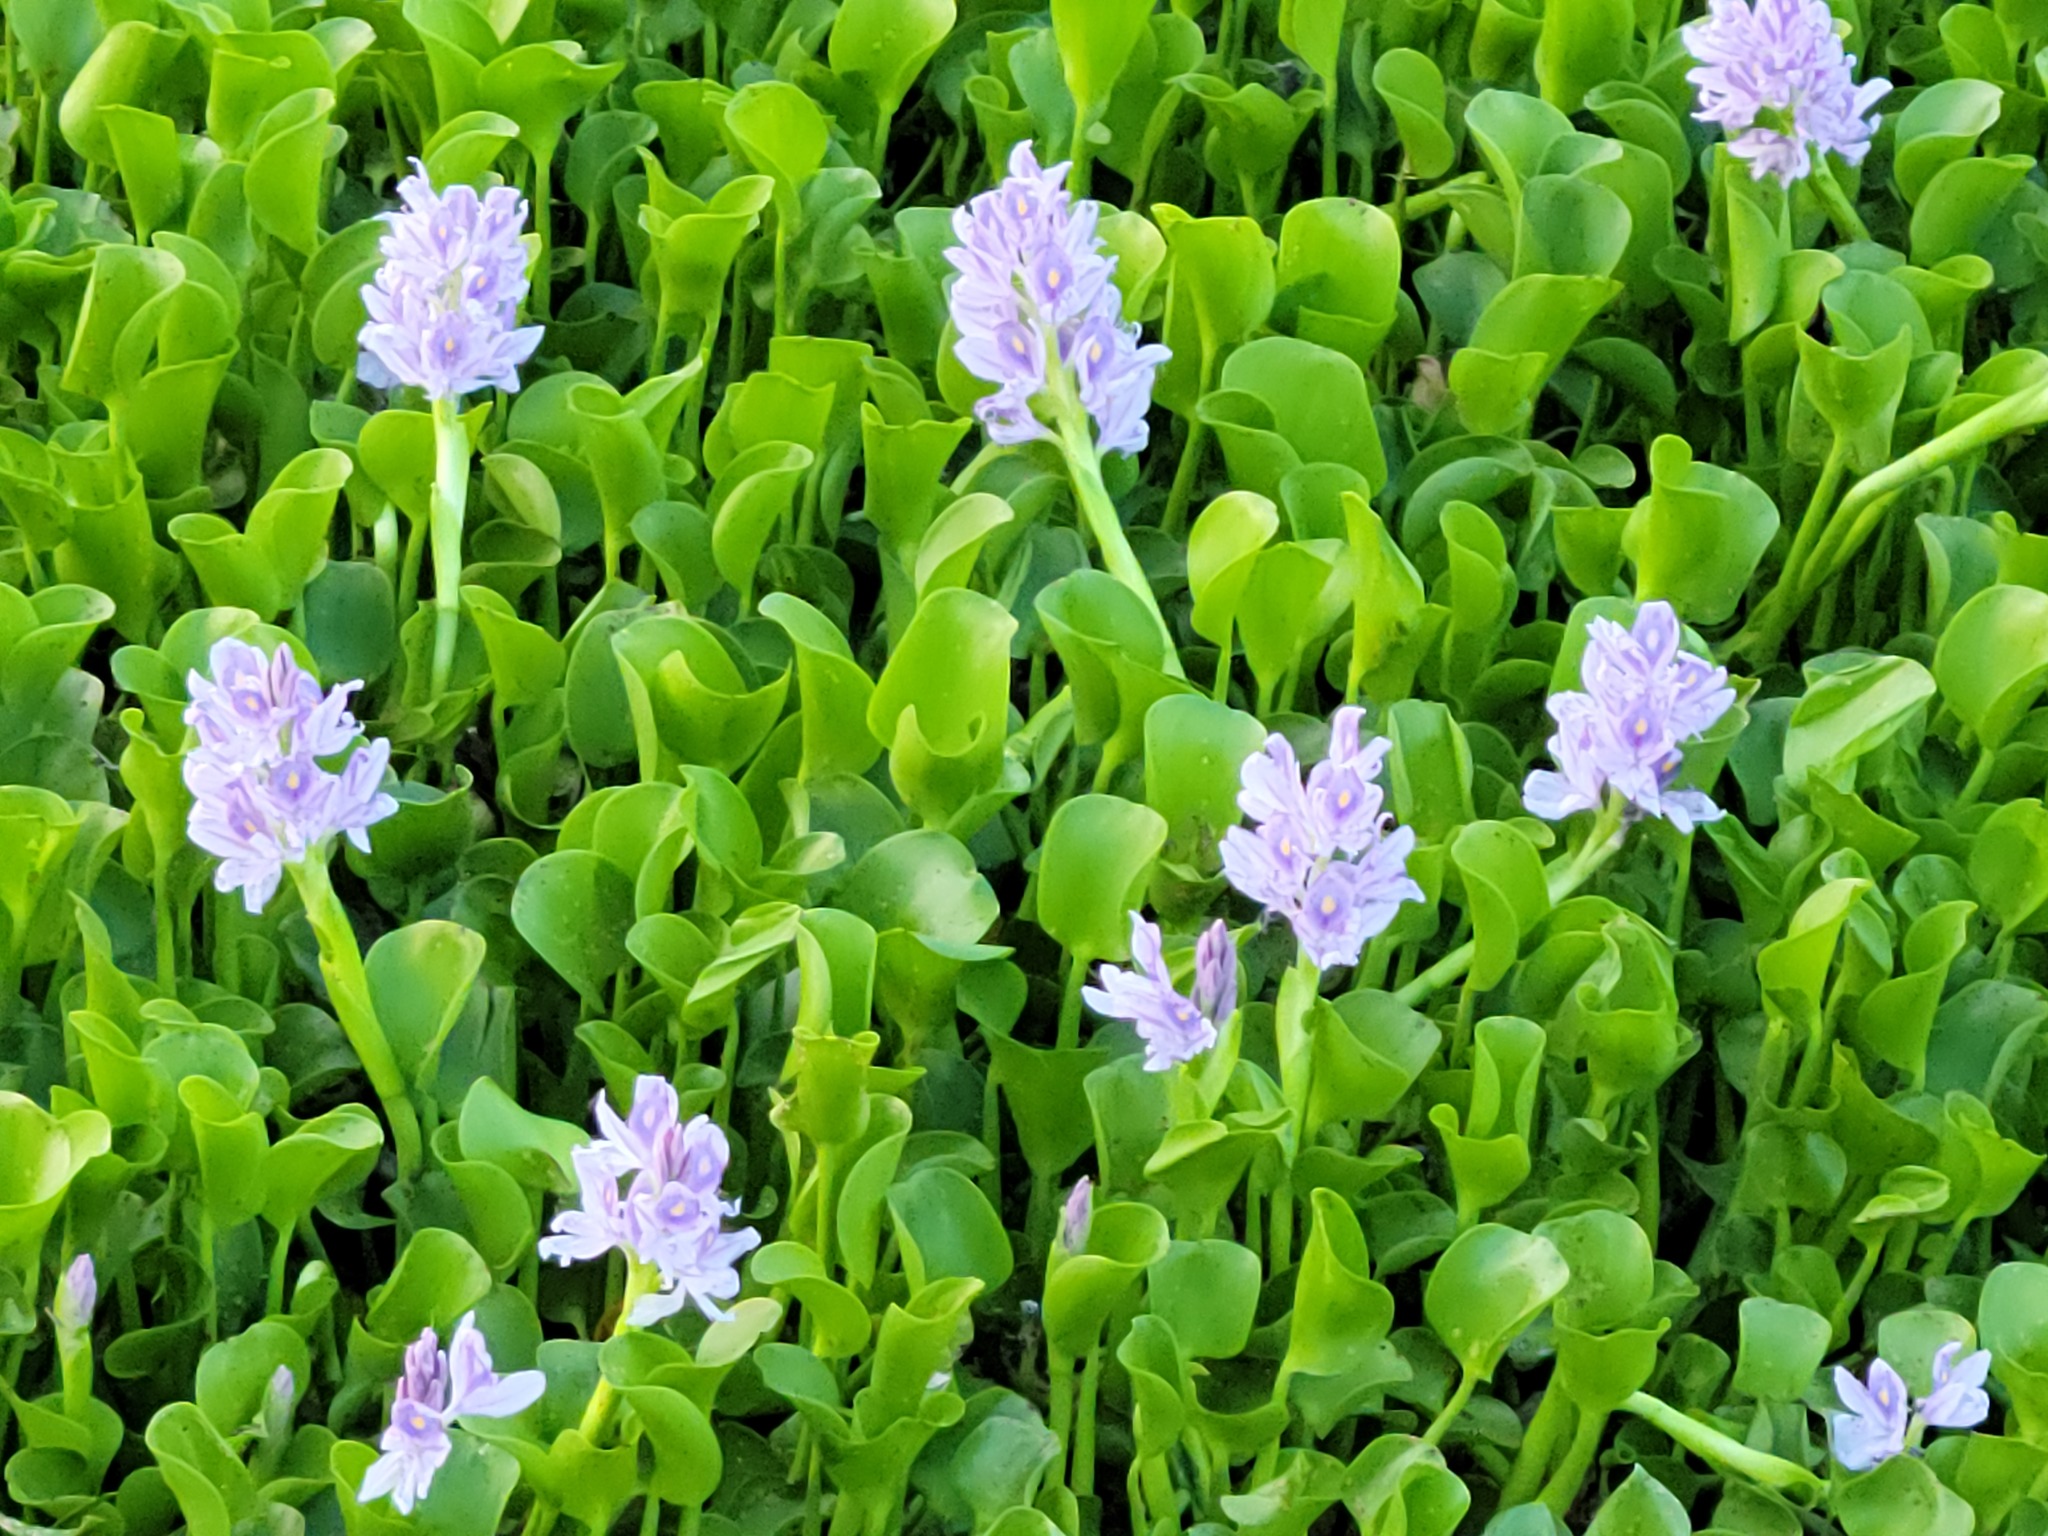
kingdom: Plantae
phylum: Tracheophyta
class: Liliopsida
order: Commelinales
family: Pontederiaceae
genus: Pontederia
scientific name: Pontederia crassipes
